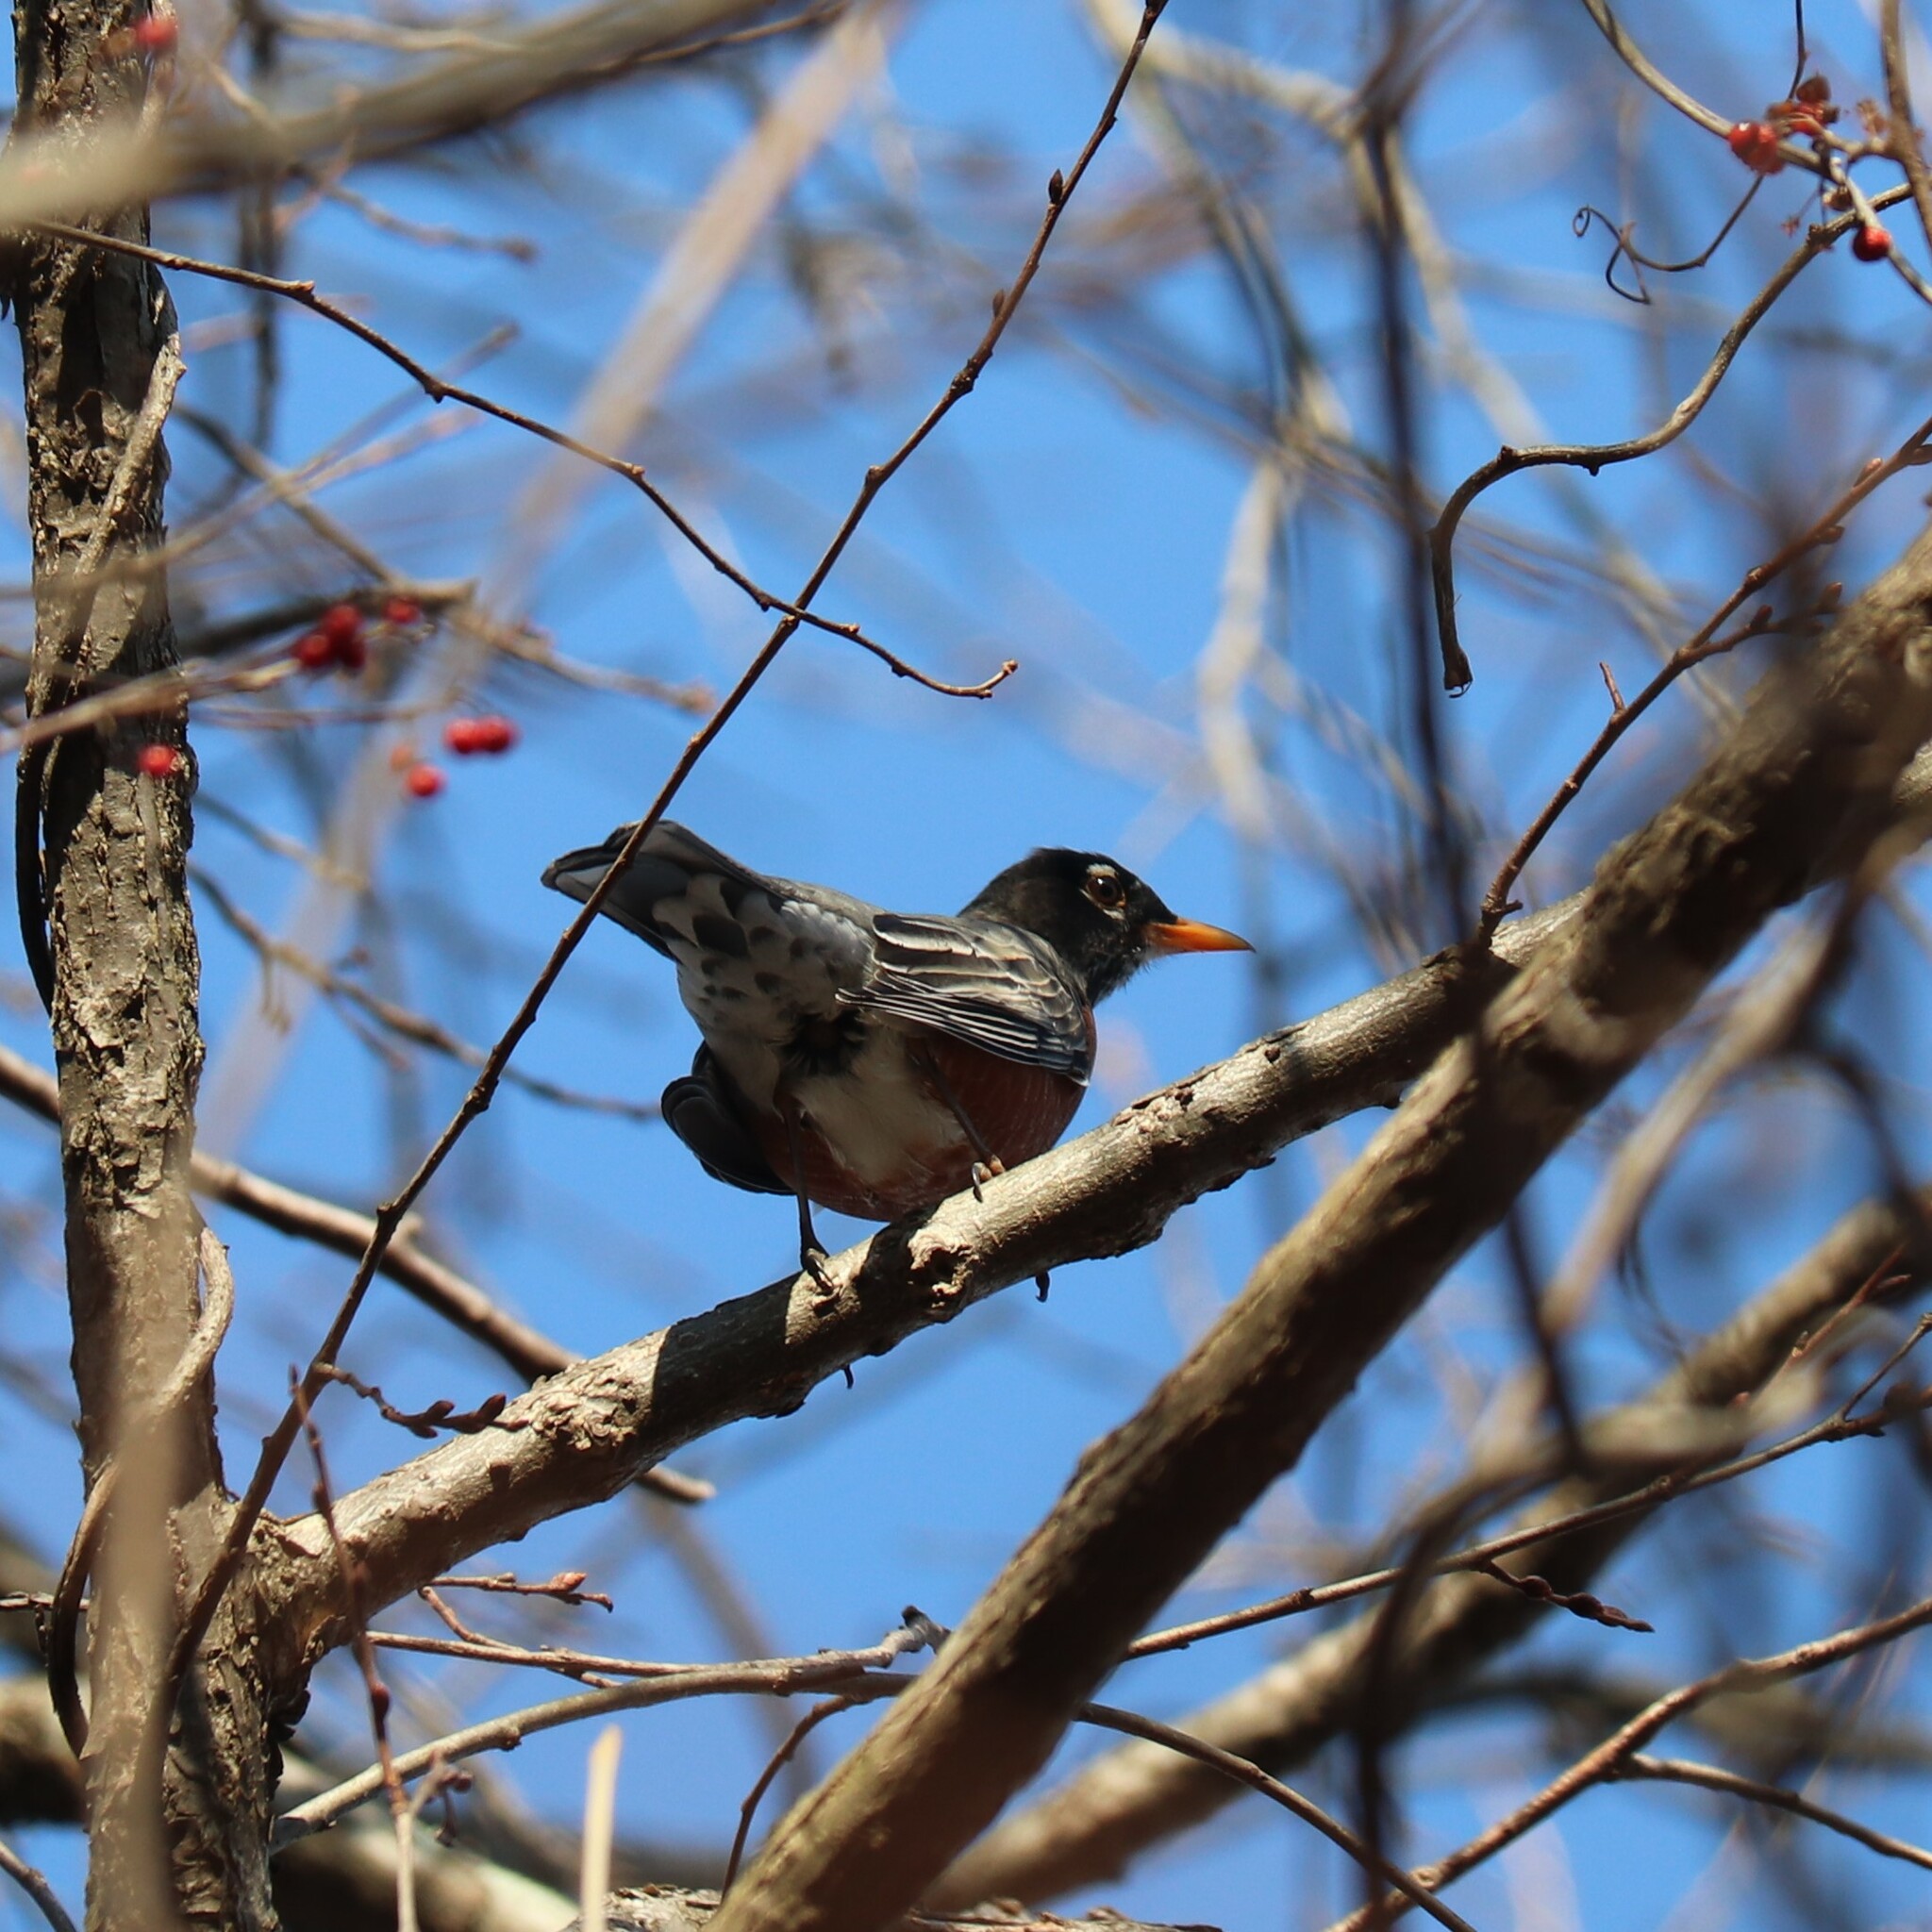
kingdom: Animalia
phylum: Chordata
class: Aves
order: Passeriformes
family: Turdidae
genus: Turdus
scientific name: Turdus migratorius
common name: American robin
